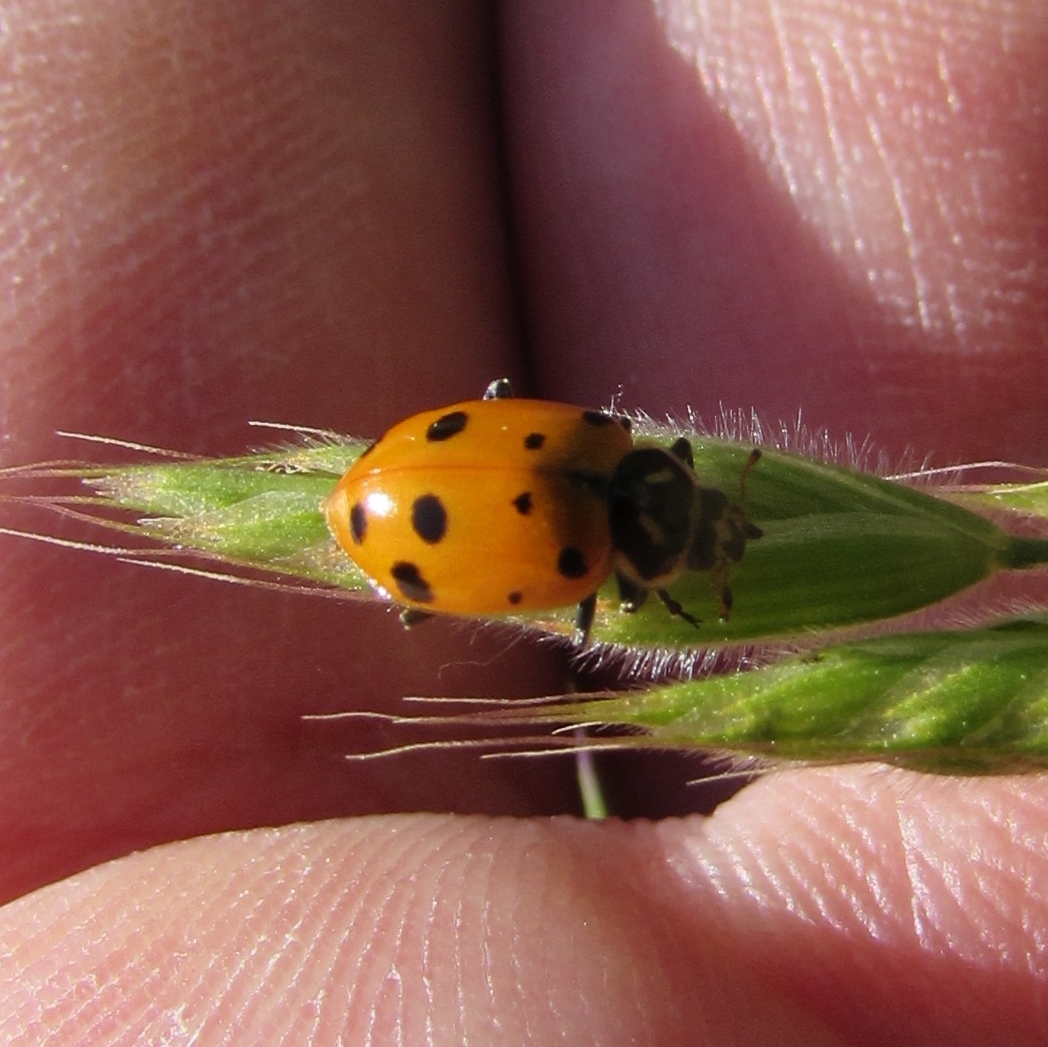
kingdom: Animalia
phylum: Arthropoda
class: Insecta
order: Coleoptera
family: Coccinellidae
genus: Hippodamia
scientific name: Hippodamia convergens
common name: Convergent lady beetle
